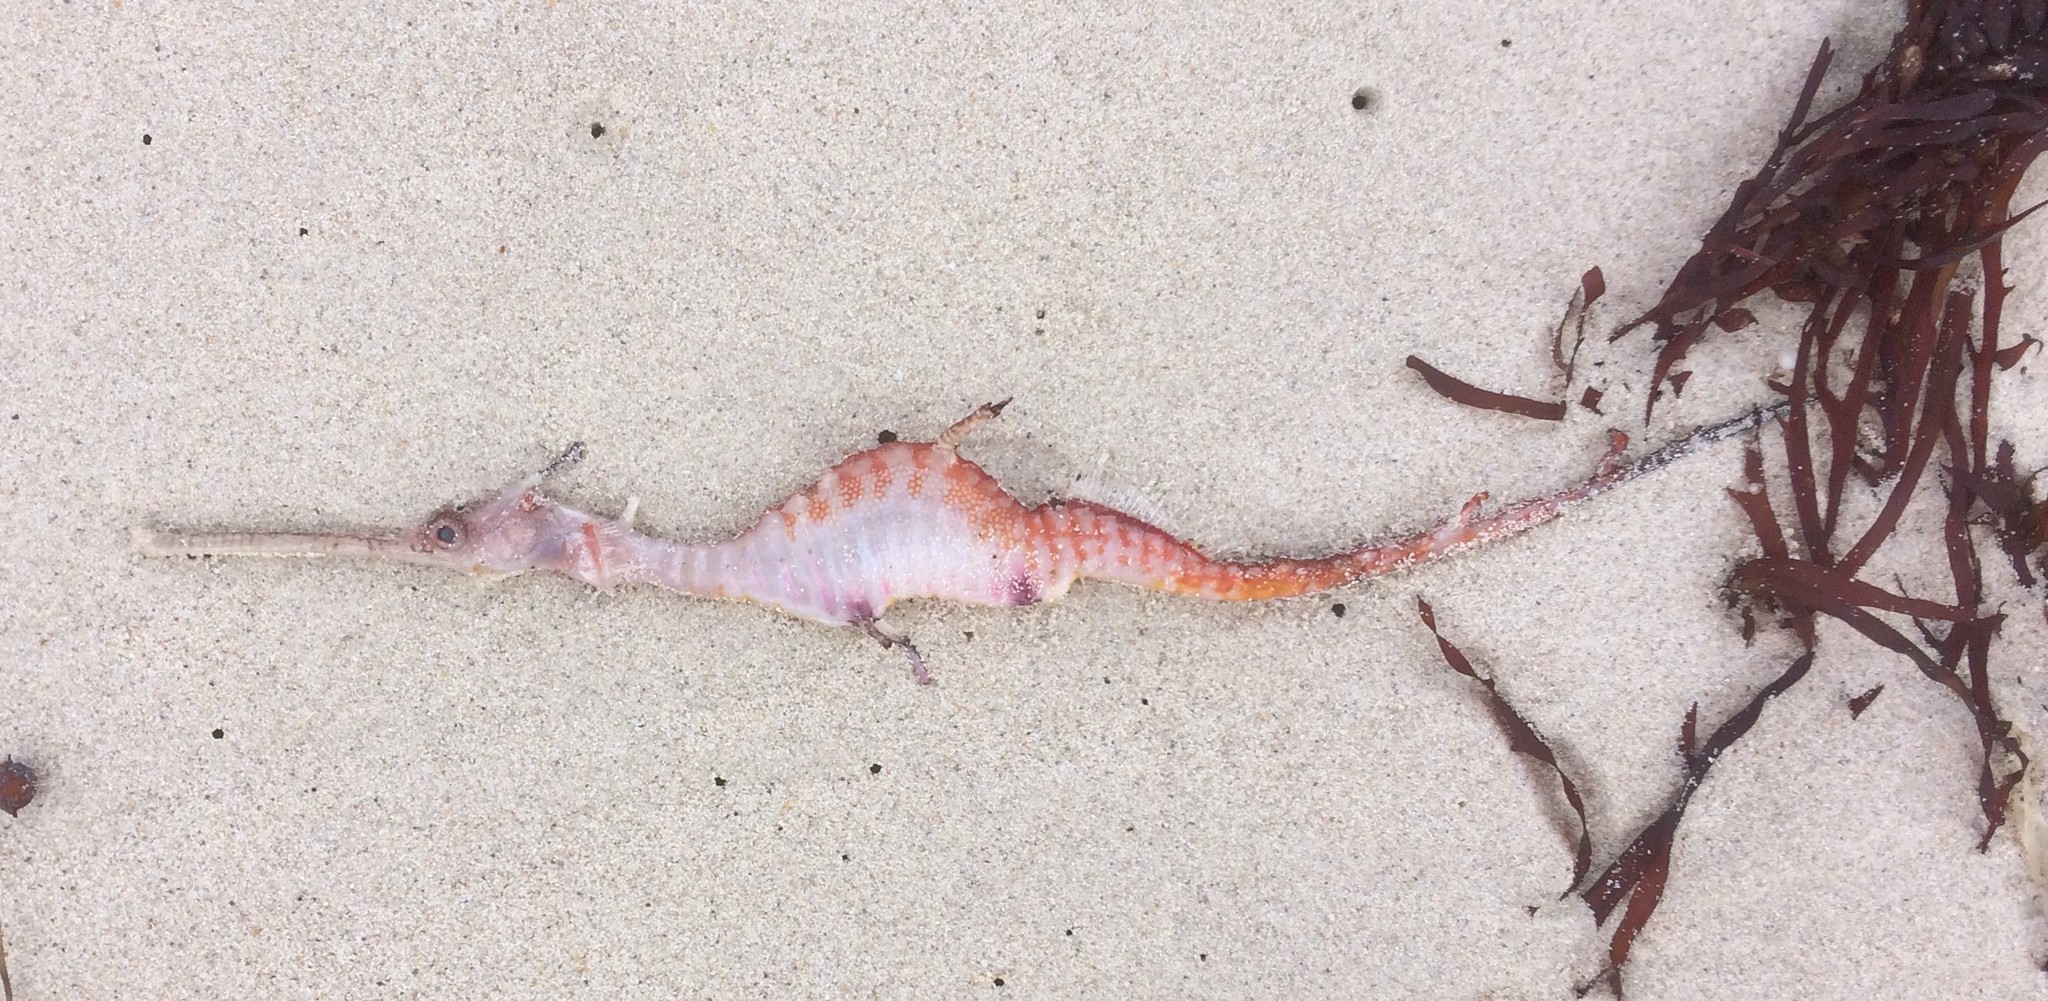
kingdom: Animalia
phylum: Chordata
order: Syngnathiformes
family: Syngnathidae
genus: Phyllopteryx
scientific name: Phyllopteryx taeniolatus
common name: Common seadragon
